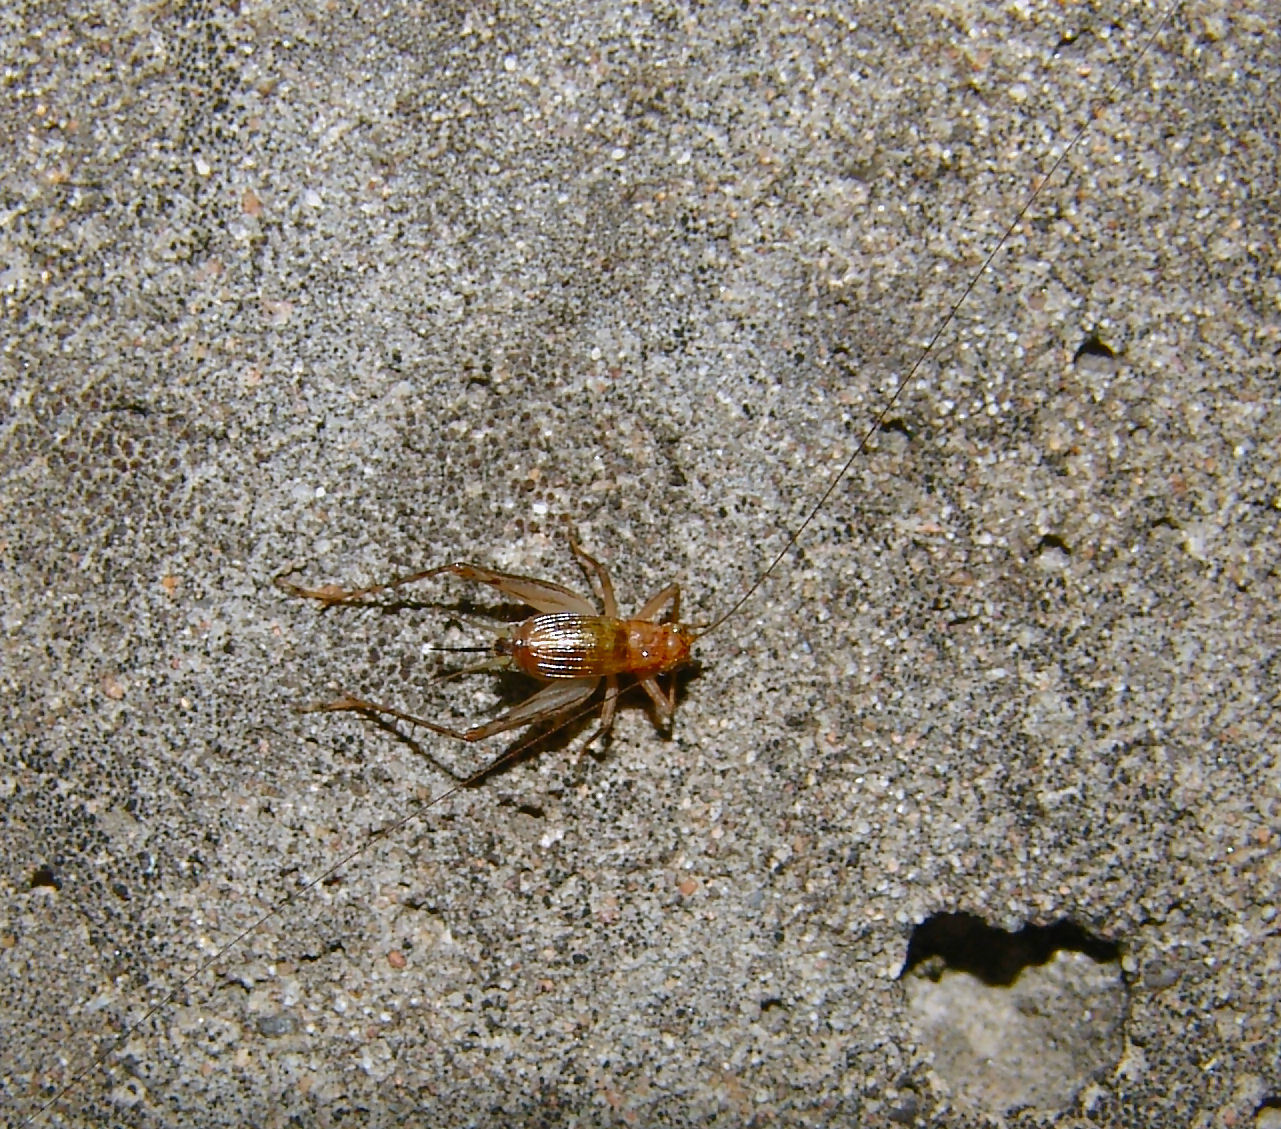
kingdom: Animalia
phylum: Arthropoda
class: Insecta
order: Orthoptera
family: Trigonidiidae
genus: Anaxipha
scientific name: Anaxipha vernalis
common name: Spring trig
